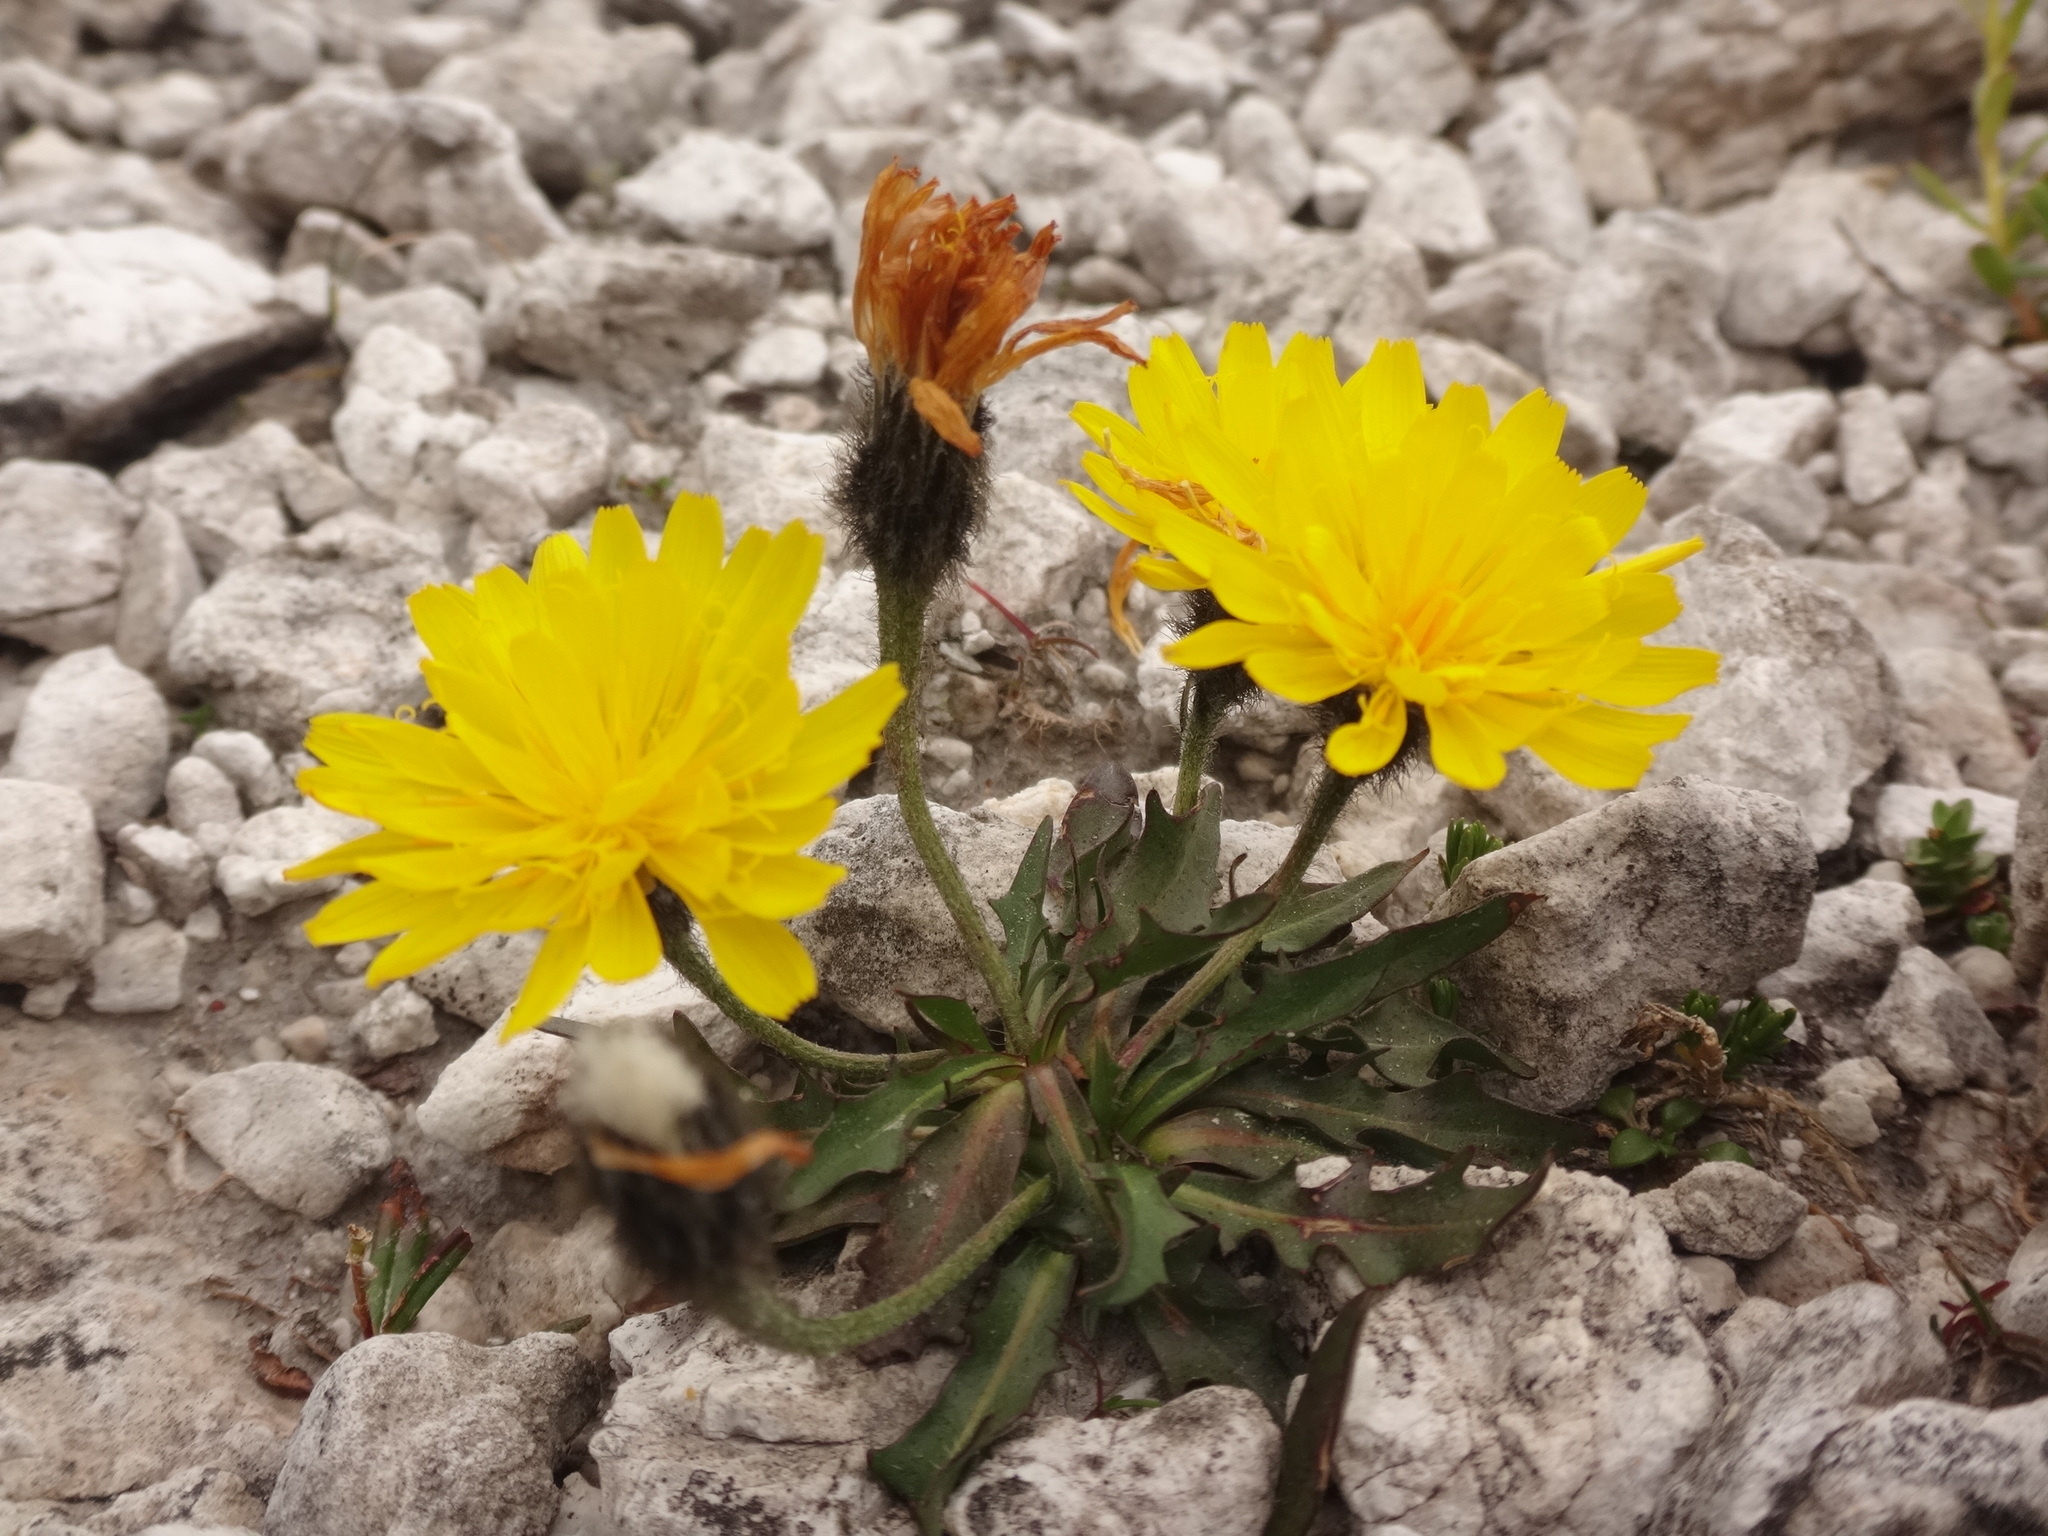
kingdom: Plantae
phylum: Tracheophyta
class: Magnoliopsida
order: Asterales
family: Asteraceae
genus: Scorzoneroides
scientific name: Scorzoneroides montana
